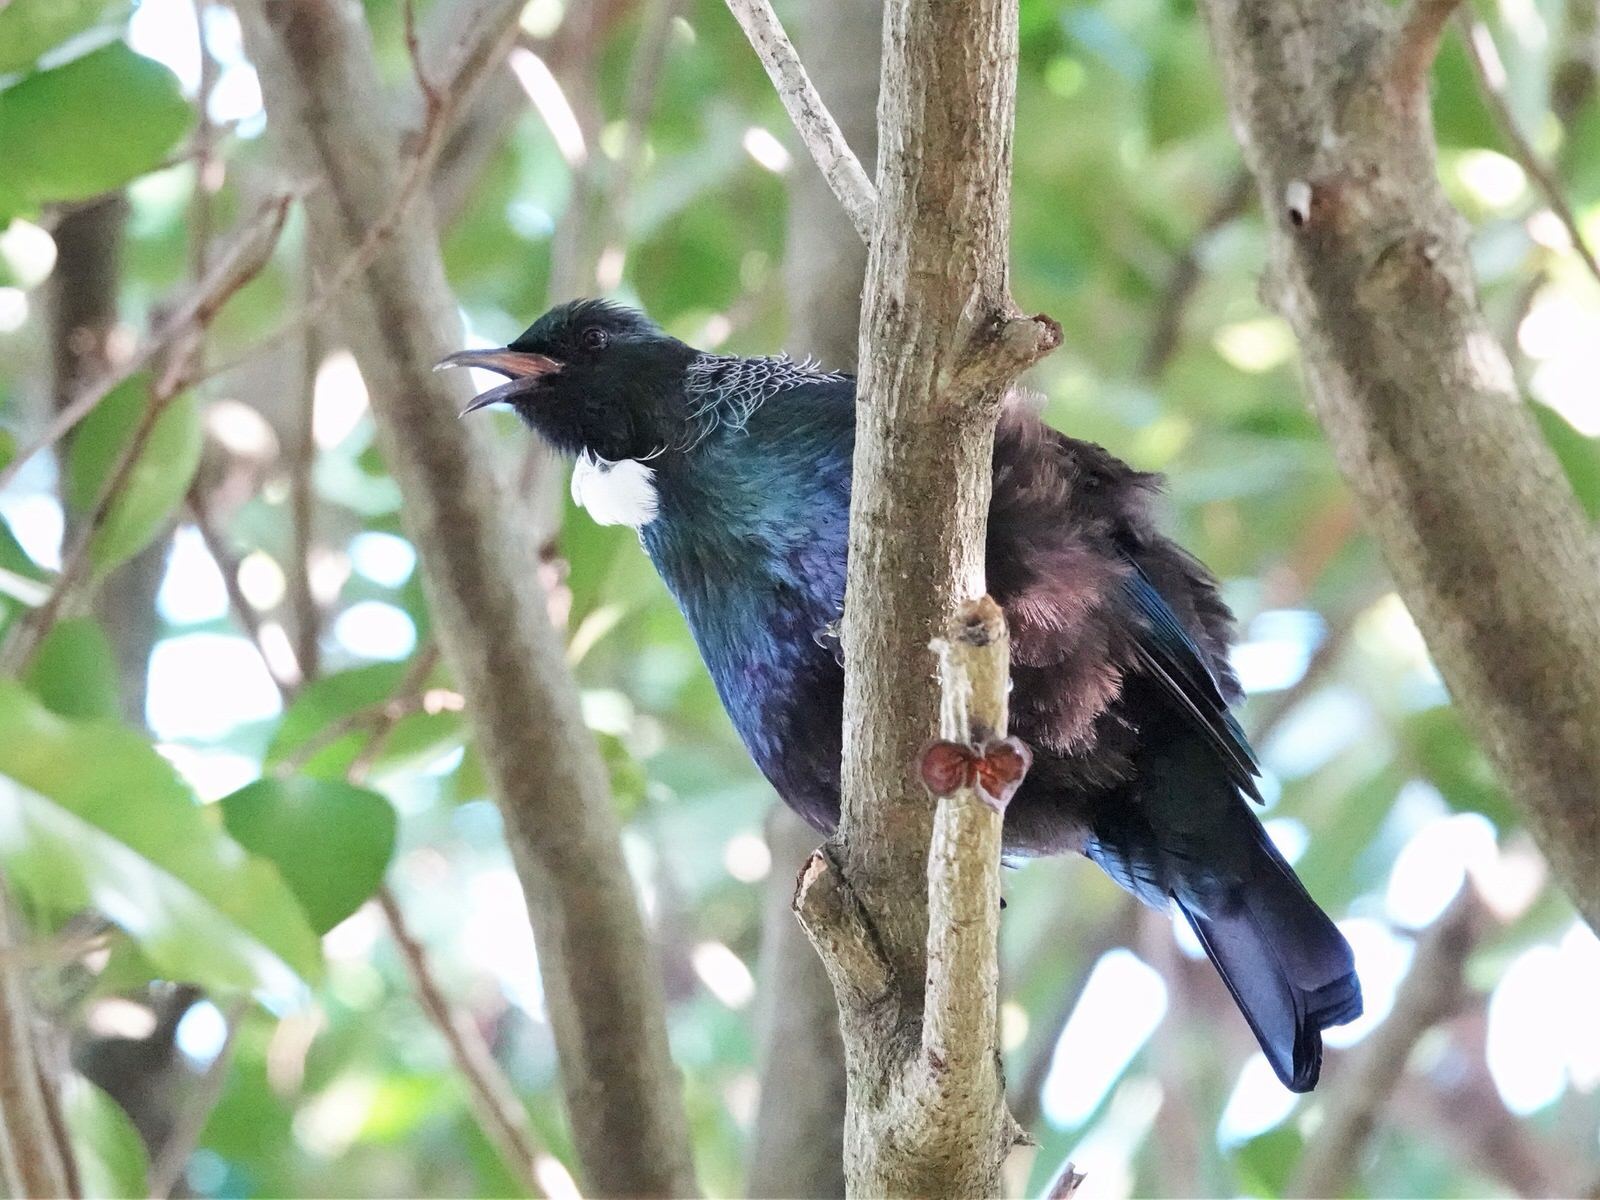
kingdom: Animalia
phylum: Chordata
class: Aves
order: Passeriformes
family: Meliphagidae
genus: Prosthemadera
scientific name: Prosthemadera novaeseelandiae
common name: Tui
